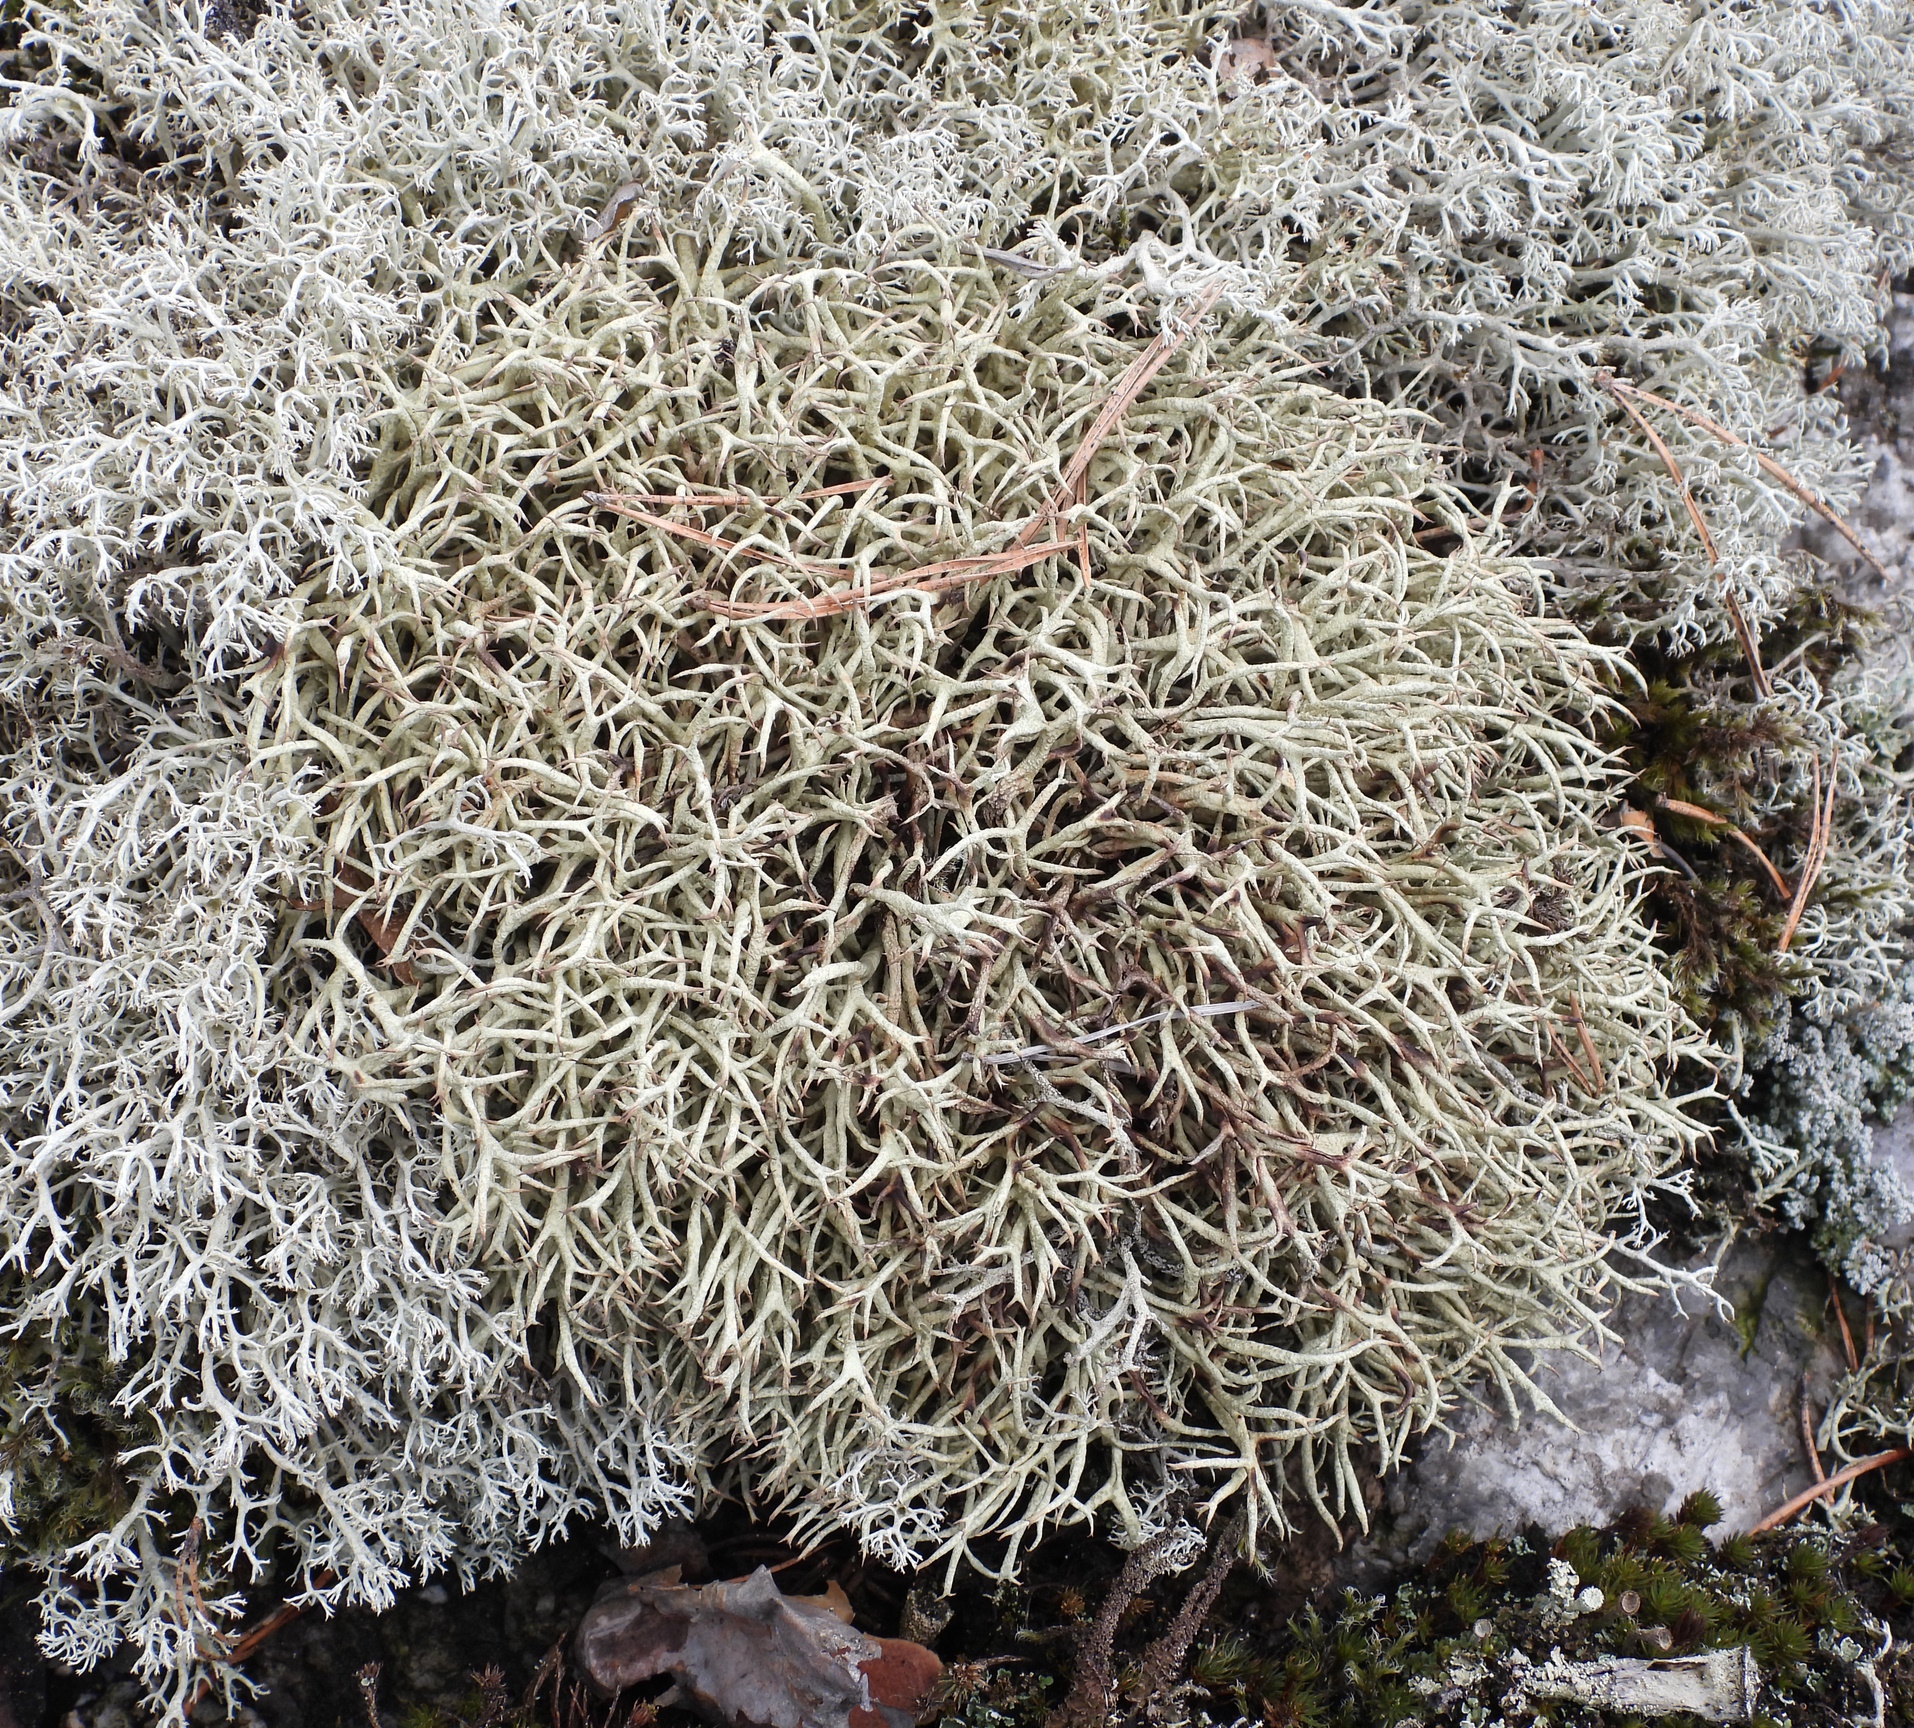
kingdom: Fungi
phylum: Ascomycota
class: Lecanoromycetes
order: Lecanorales
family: Cladoniaceae
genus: Cladonia
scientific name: Cladonia uncialis
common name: Thorn lichen
